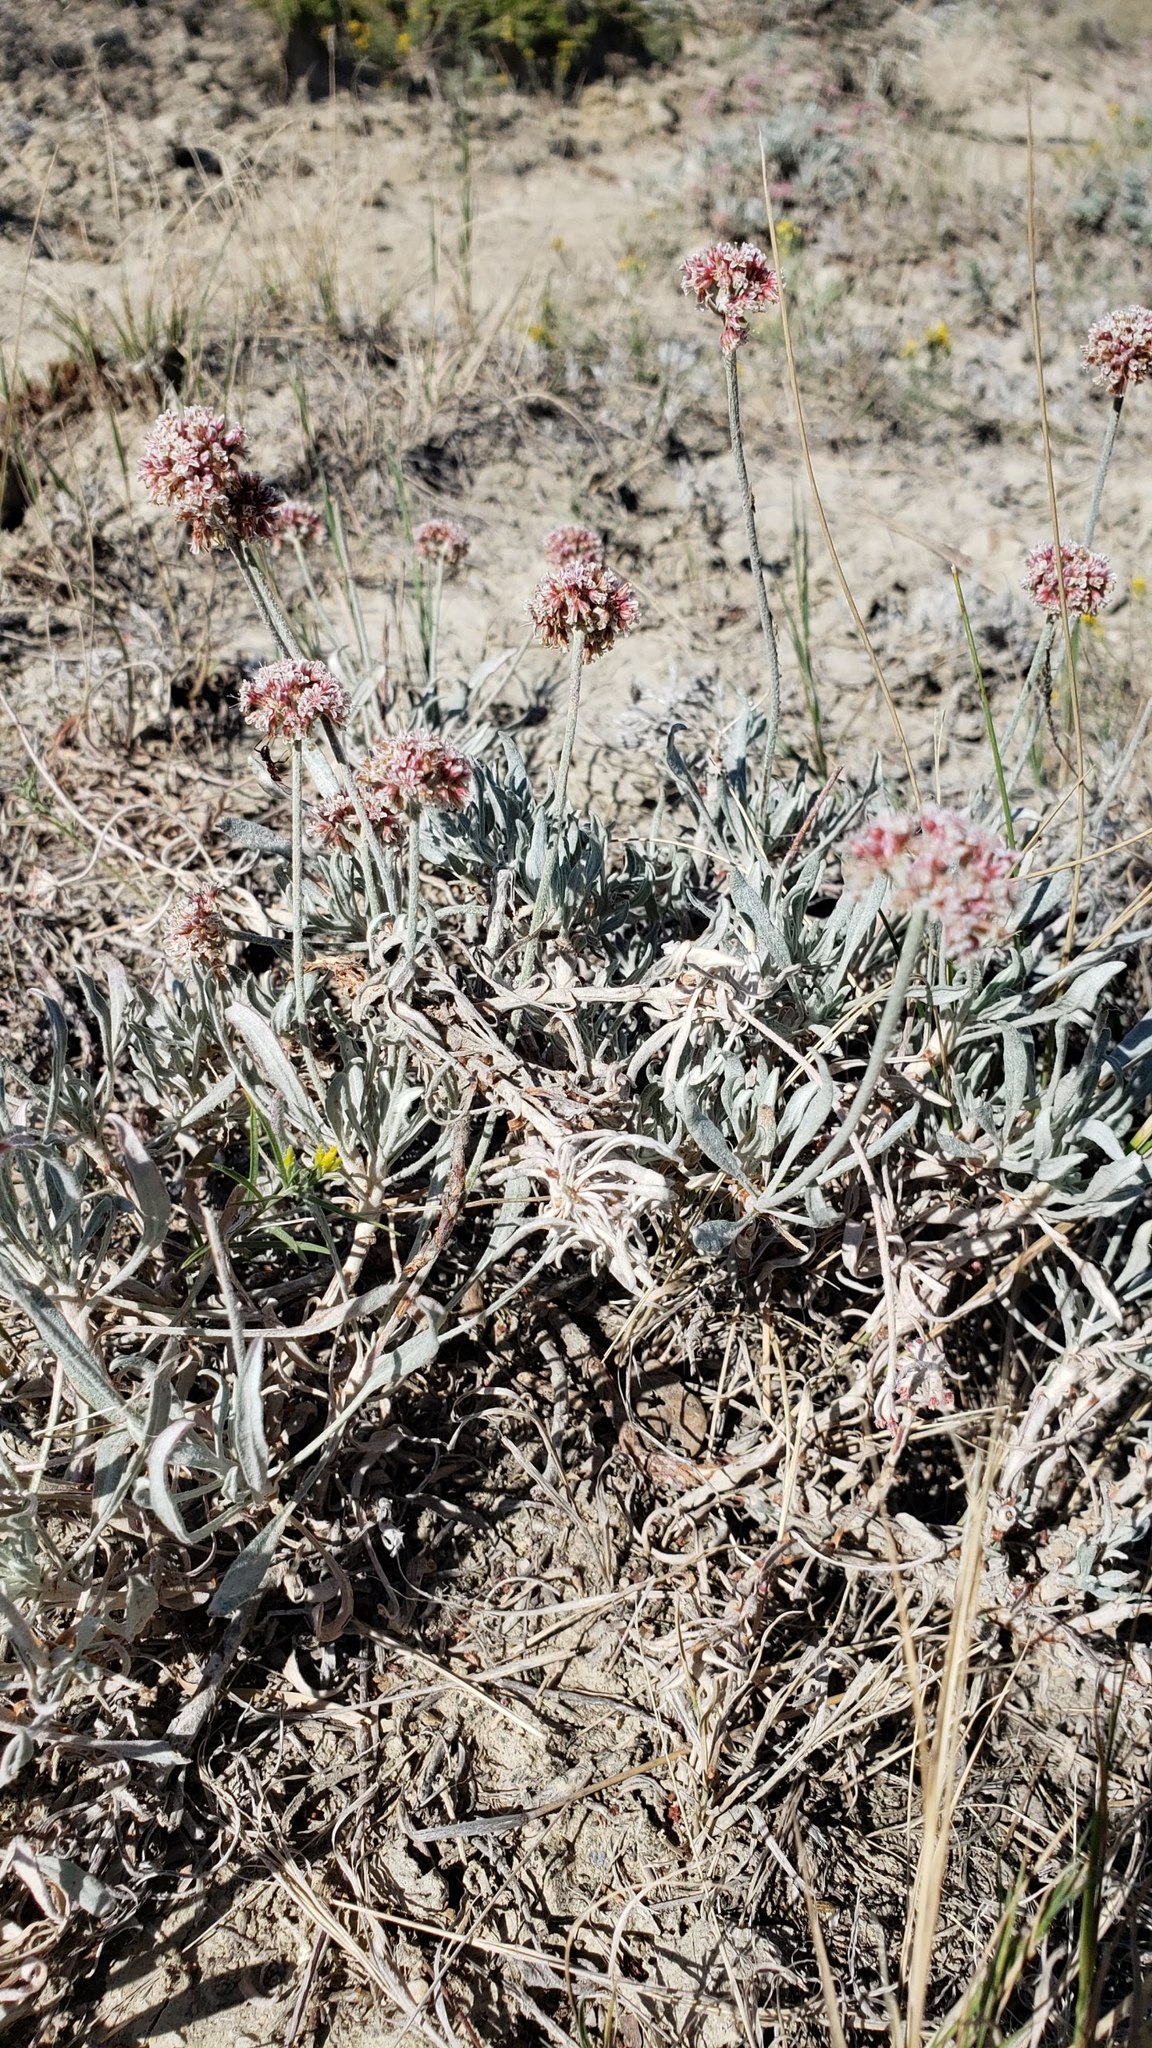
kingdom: Plantae
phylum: Tracheophyta
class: Magnoliopsida
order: Caryophyllales
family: Polygonaceae
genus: Eriogonum
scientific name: Eriogonum pauciflorum
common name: Few-flower wild buckwheat
